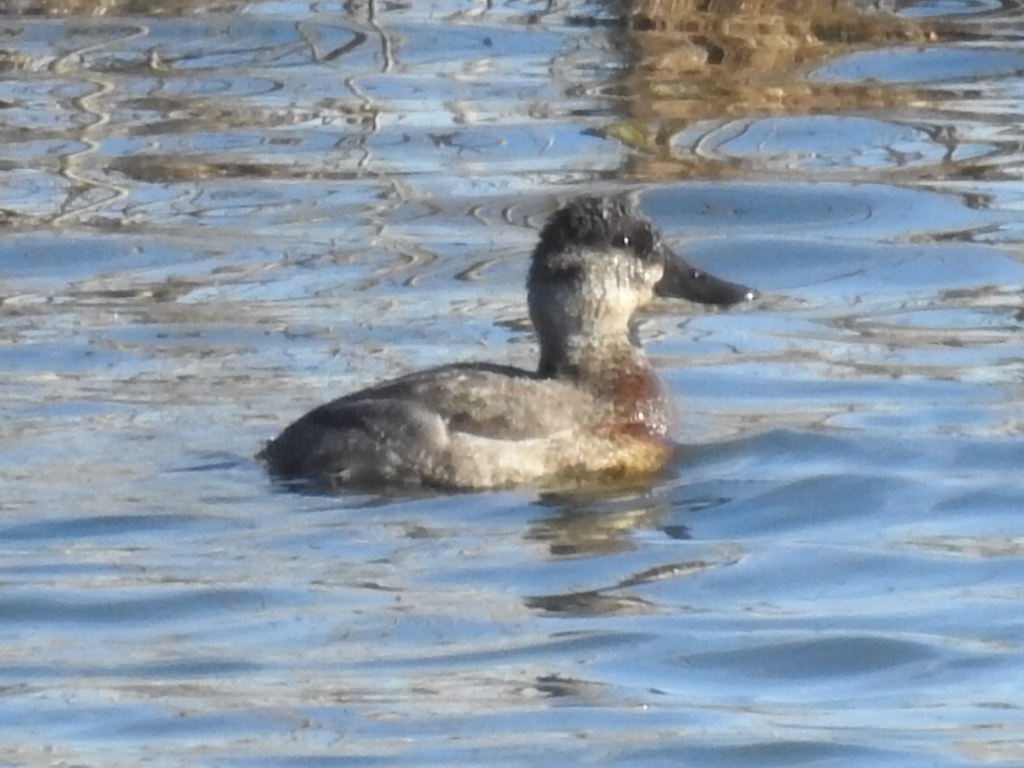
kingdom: Animalia
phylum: Chordata
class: Aves
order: Anseriformes
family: Anatidae
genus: Oxyura
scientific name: Oxyura jamaicensis
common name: Ruddy duck
